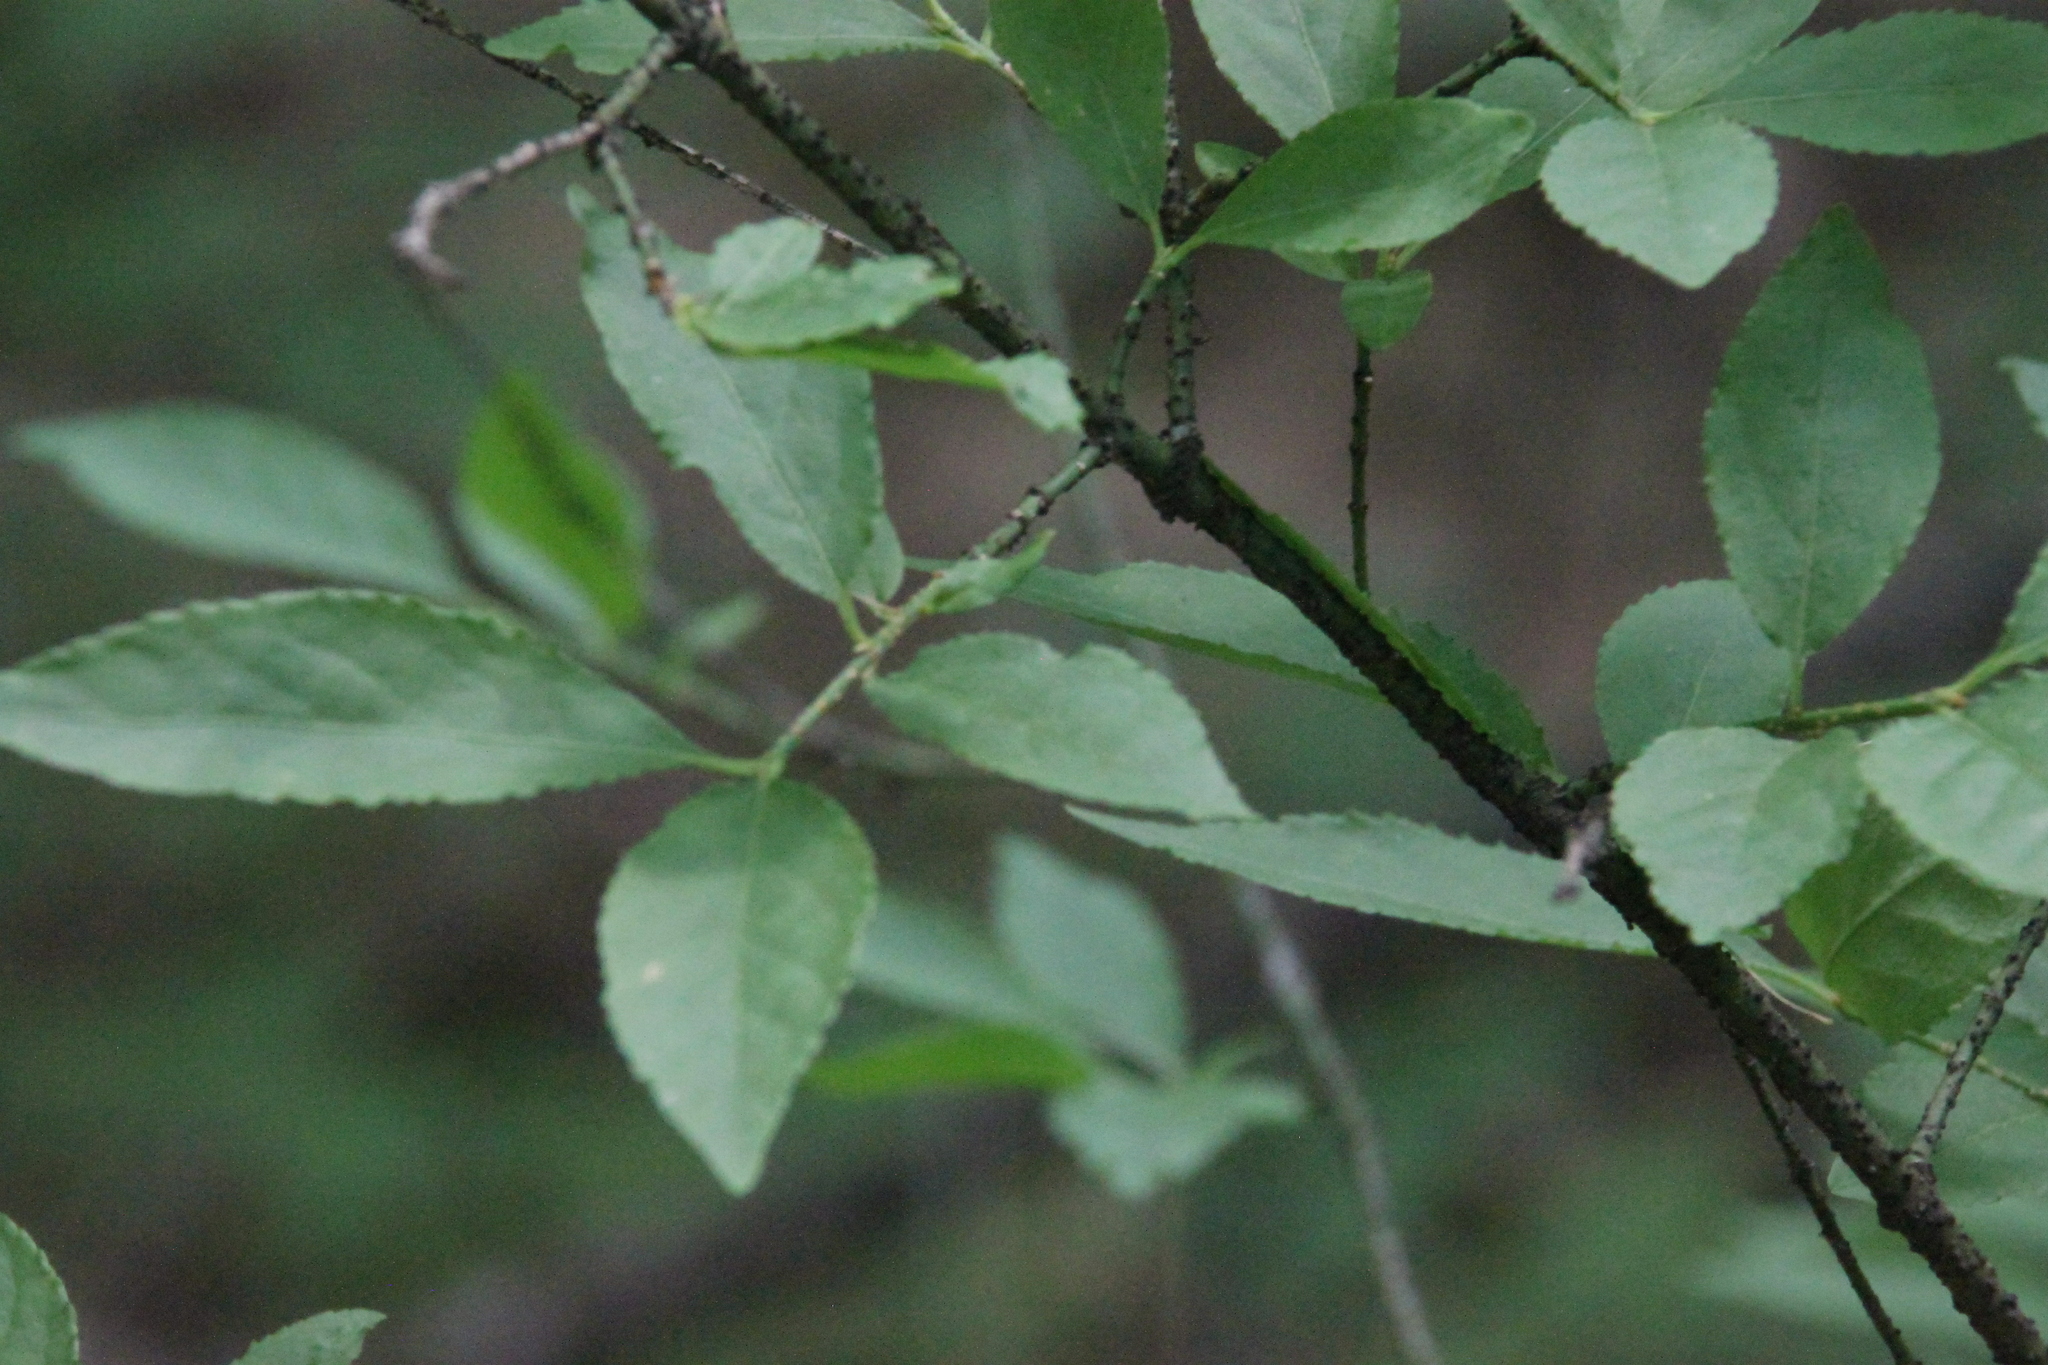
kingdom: Plantae
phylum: Tracheophyta
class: Magnoliopsida
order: Celastrales
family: Celastraceae
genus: Euonymus
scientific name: Euonymus verrucosus
